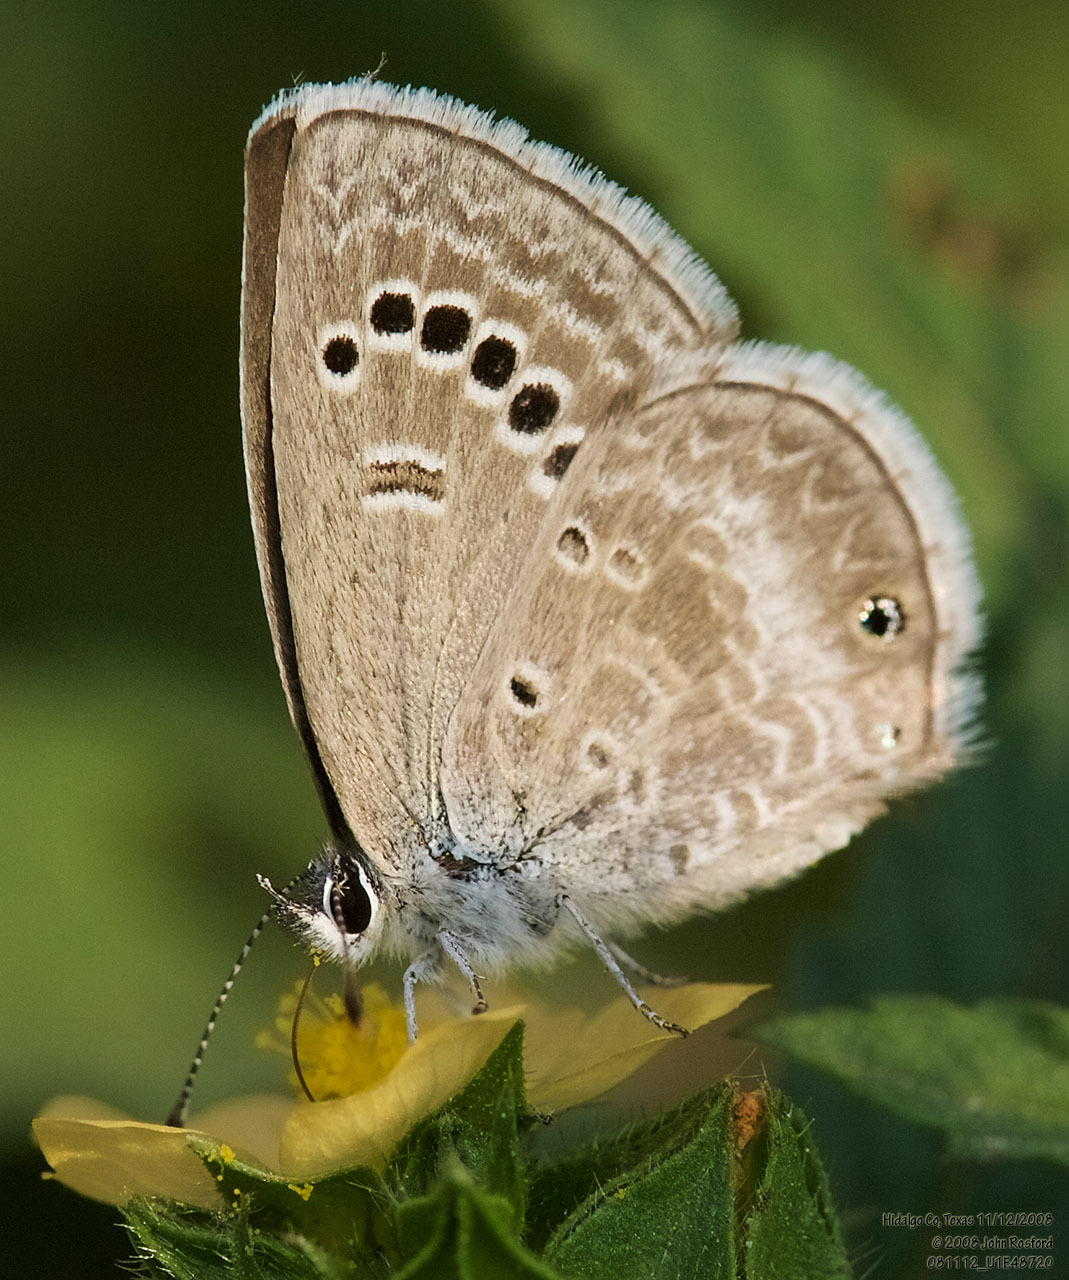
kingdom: Animalia
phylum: Arthropoda
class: Insecta
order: Lepidoptera
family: Lycaenidae
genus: Echinargus
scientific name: Echinargus isola
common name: Reakirt's blue
